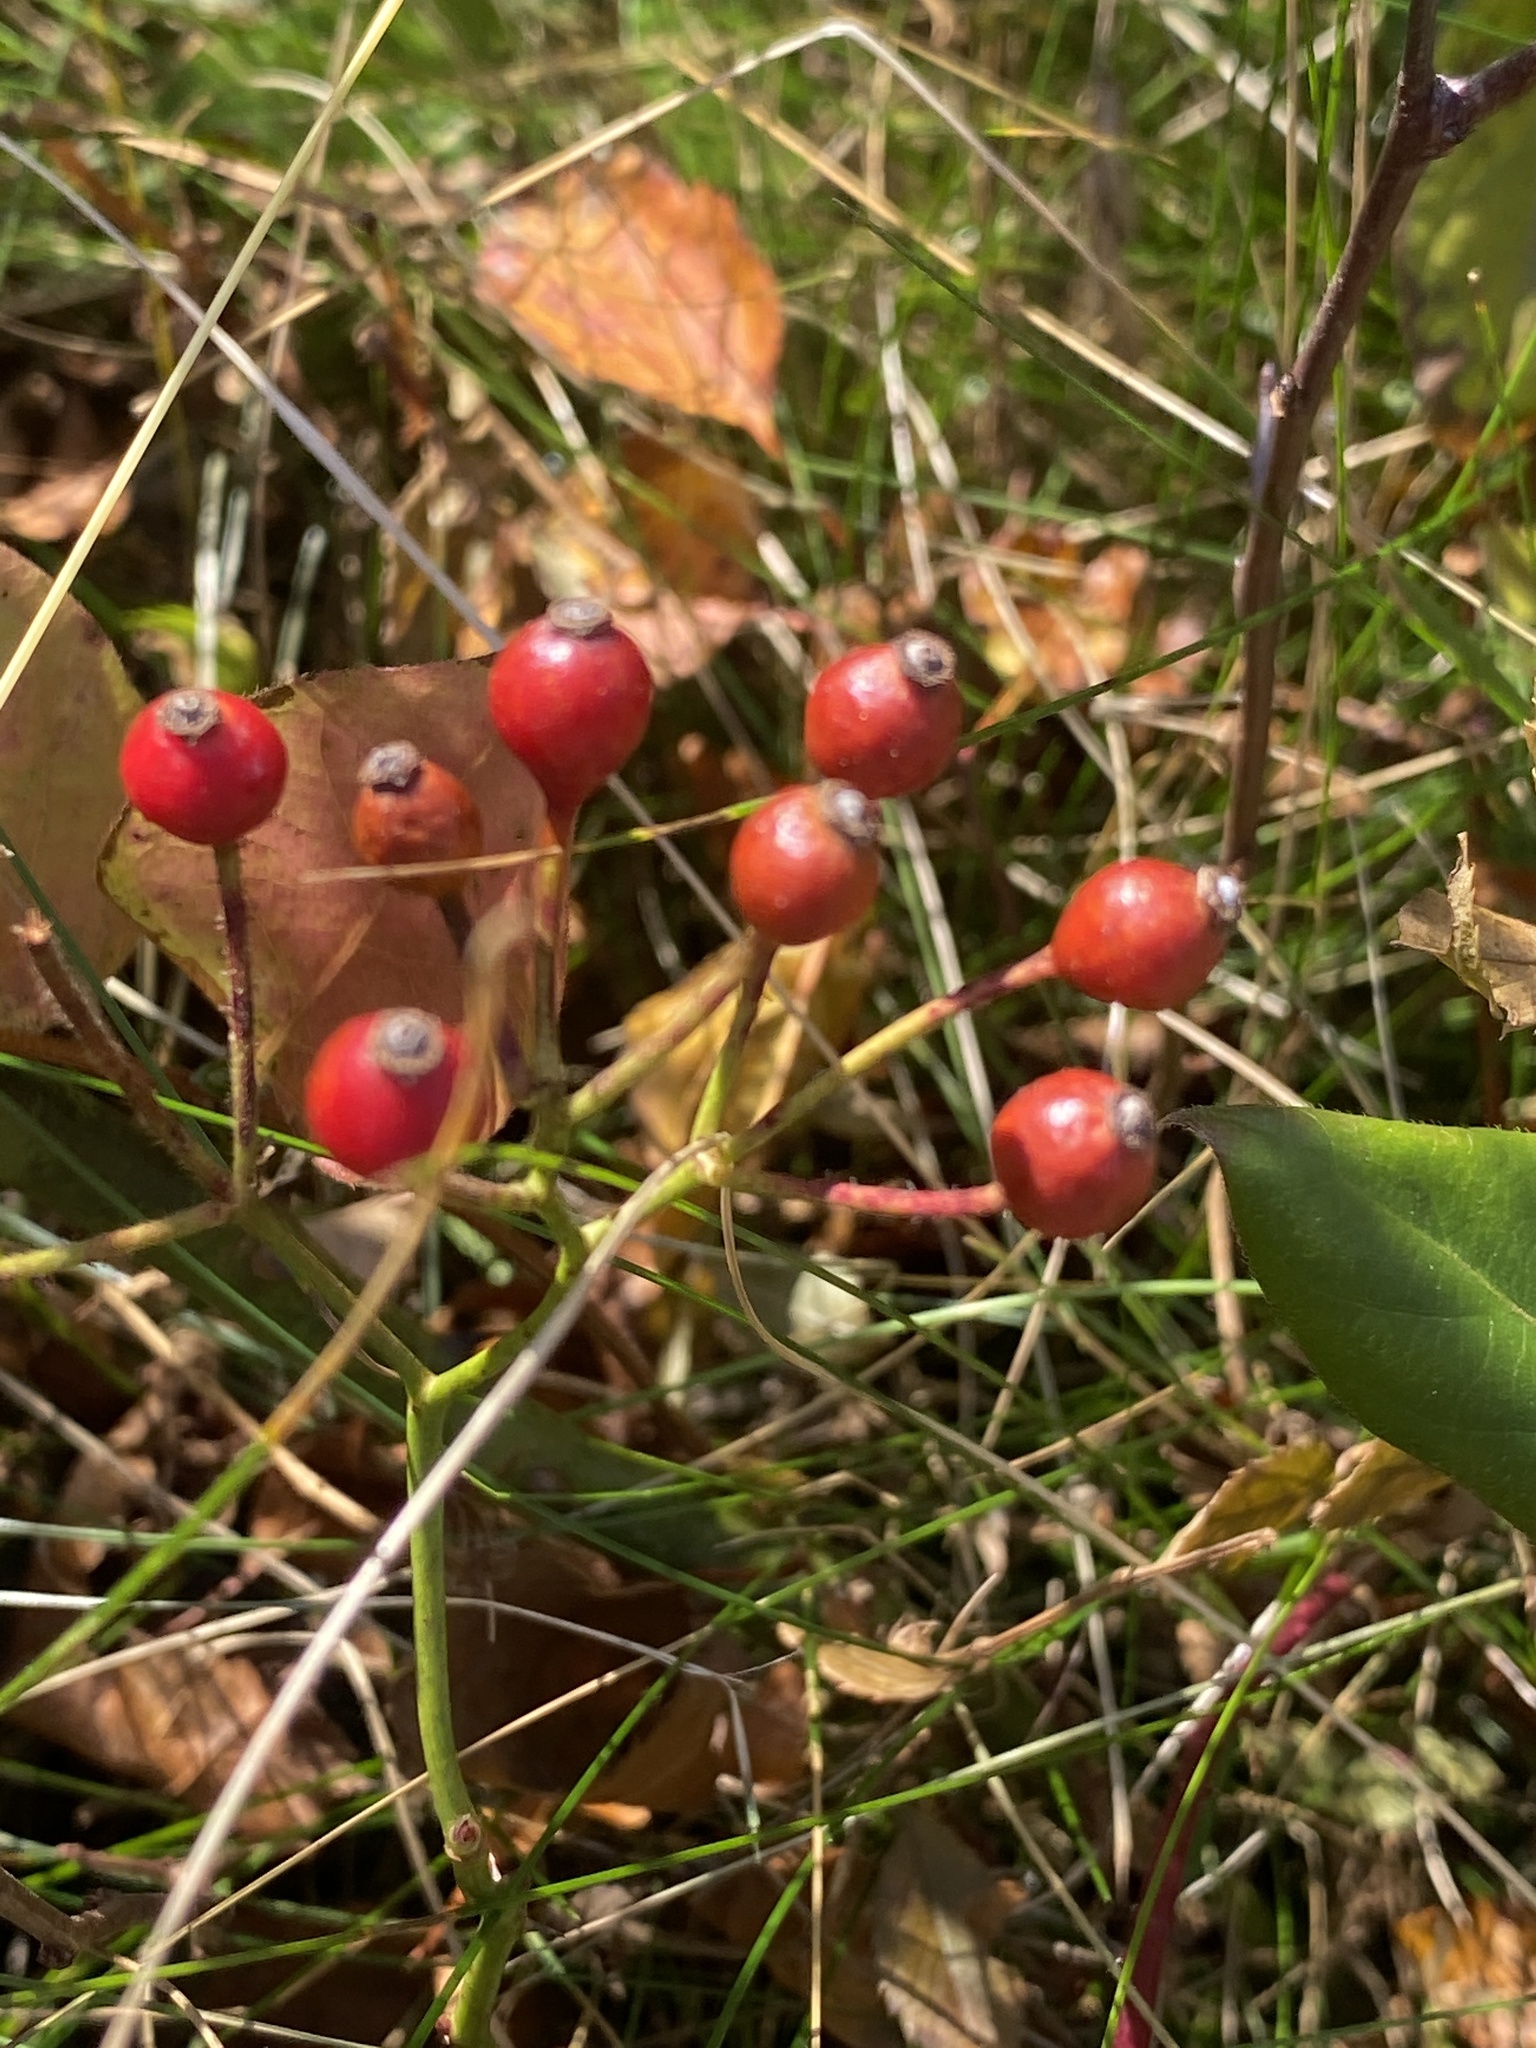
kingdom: Plantae
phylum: Tracheophyta
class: Magnoliopsida
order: Rosales
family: Rosaceae
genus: Rosa
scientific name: Rosa multiflora
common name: Multiflora rose
